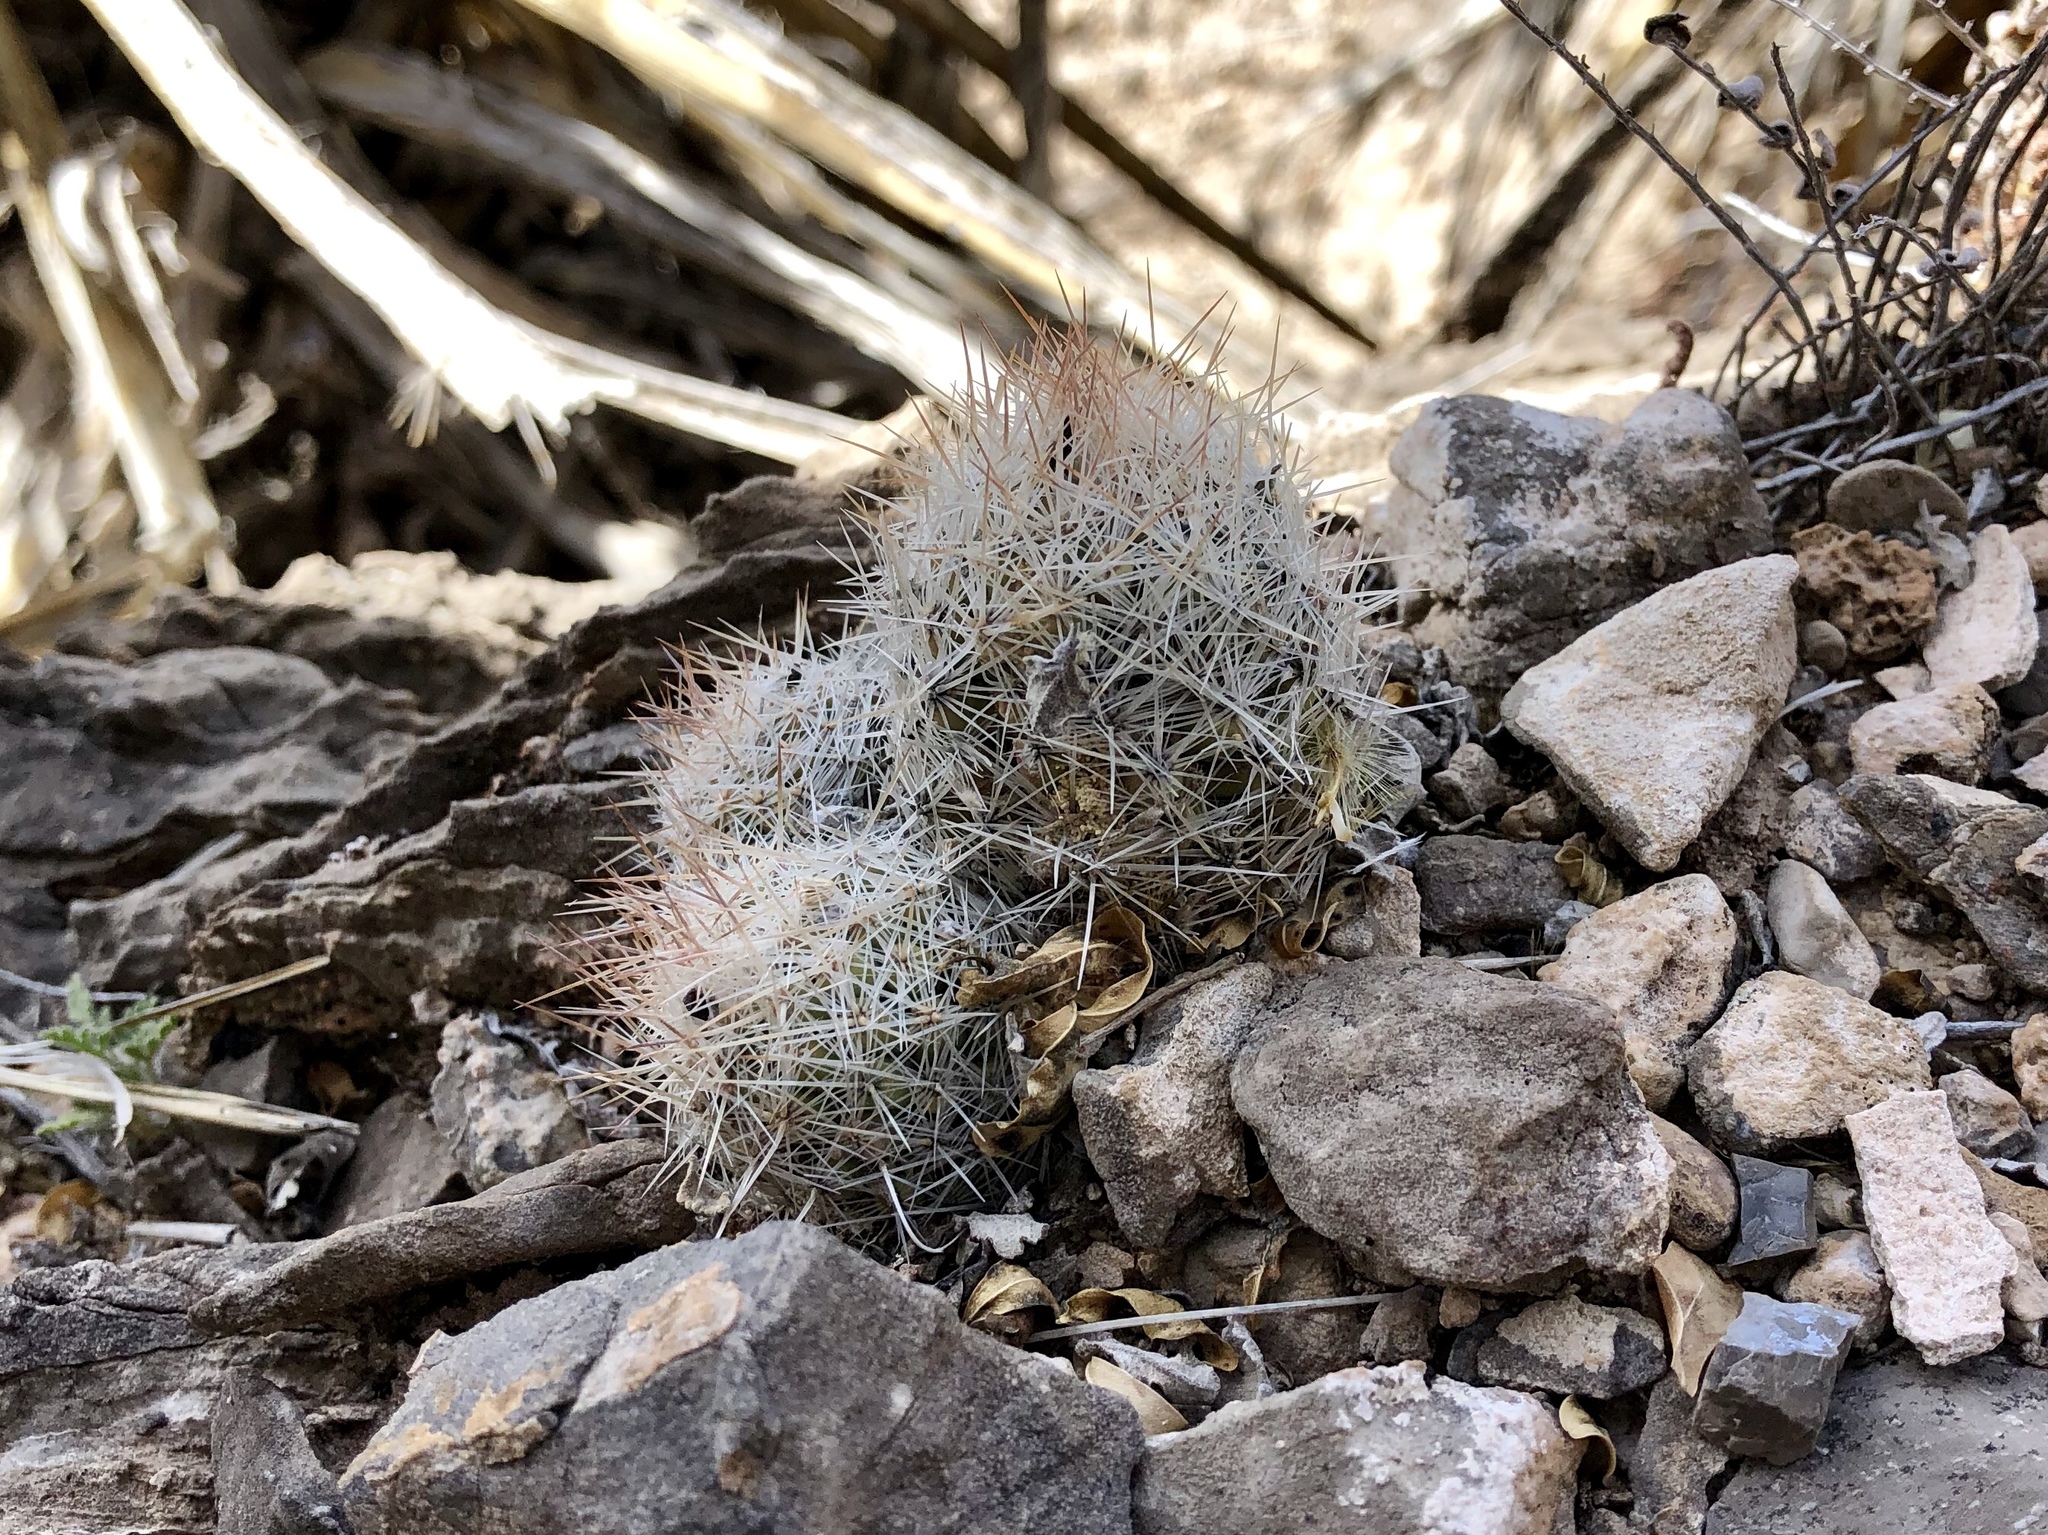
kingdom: Plantae
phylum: Tracheophyta
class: Magnoliopsida
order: Caryophyllales
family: Cactaceae
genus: Pelecyphora
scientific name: Pelecyphora tuberculosa
